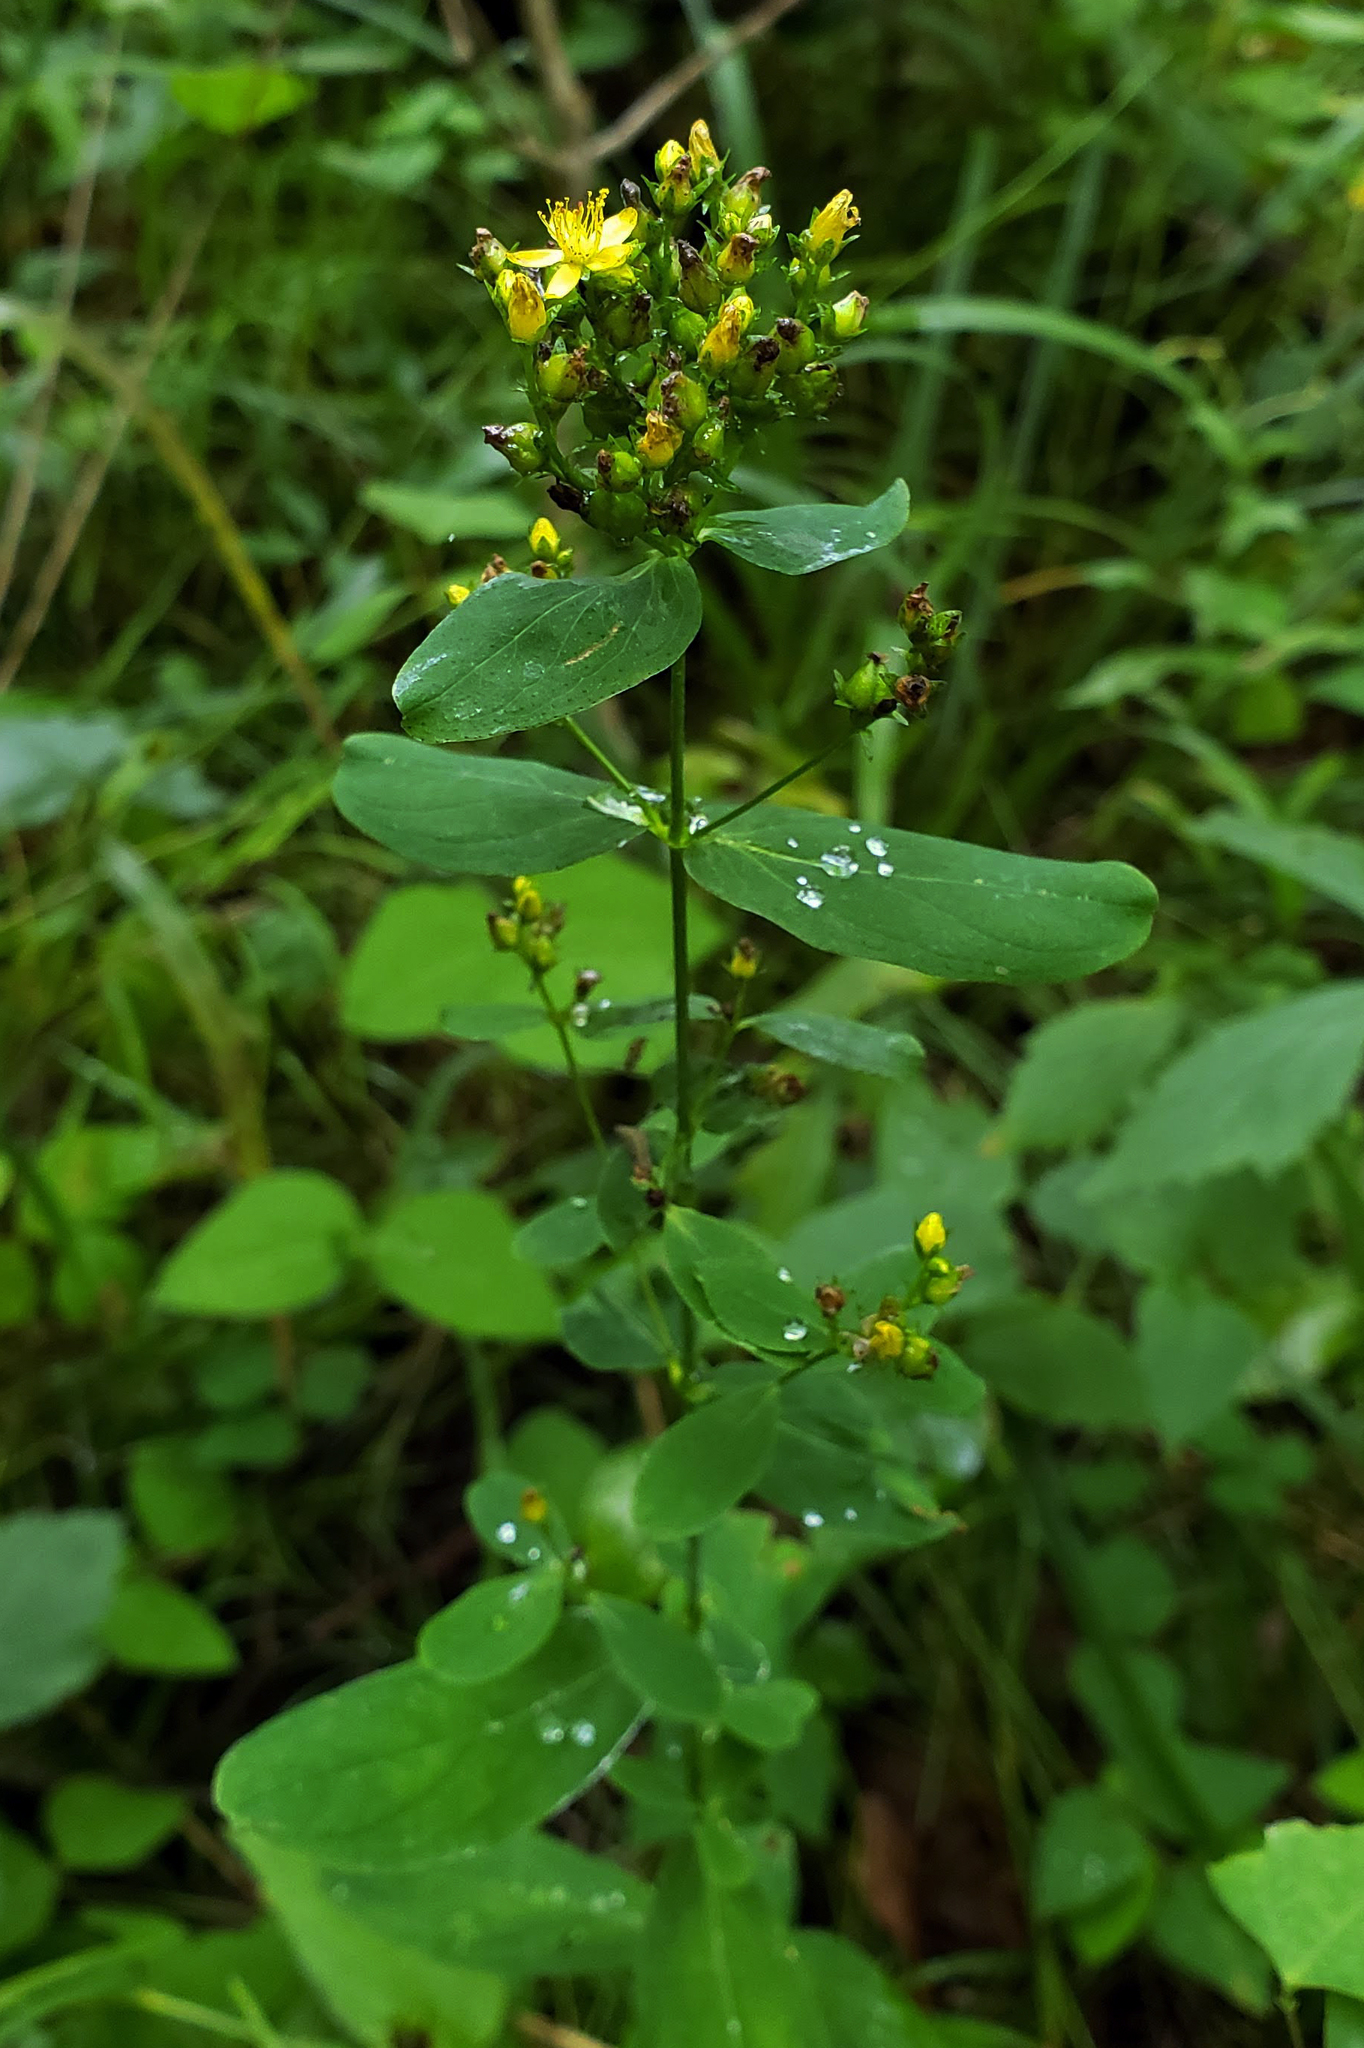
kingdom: Plantae
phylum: Tracheophyta
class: Magnoliopsida
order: Malpighiales
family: Hypericaceae
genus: Hypericum
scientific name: Hypericum punctatum
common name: Spotted st. john's-wort
